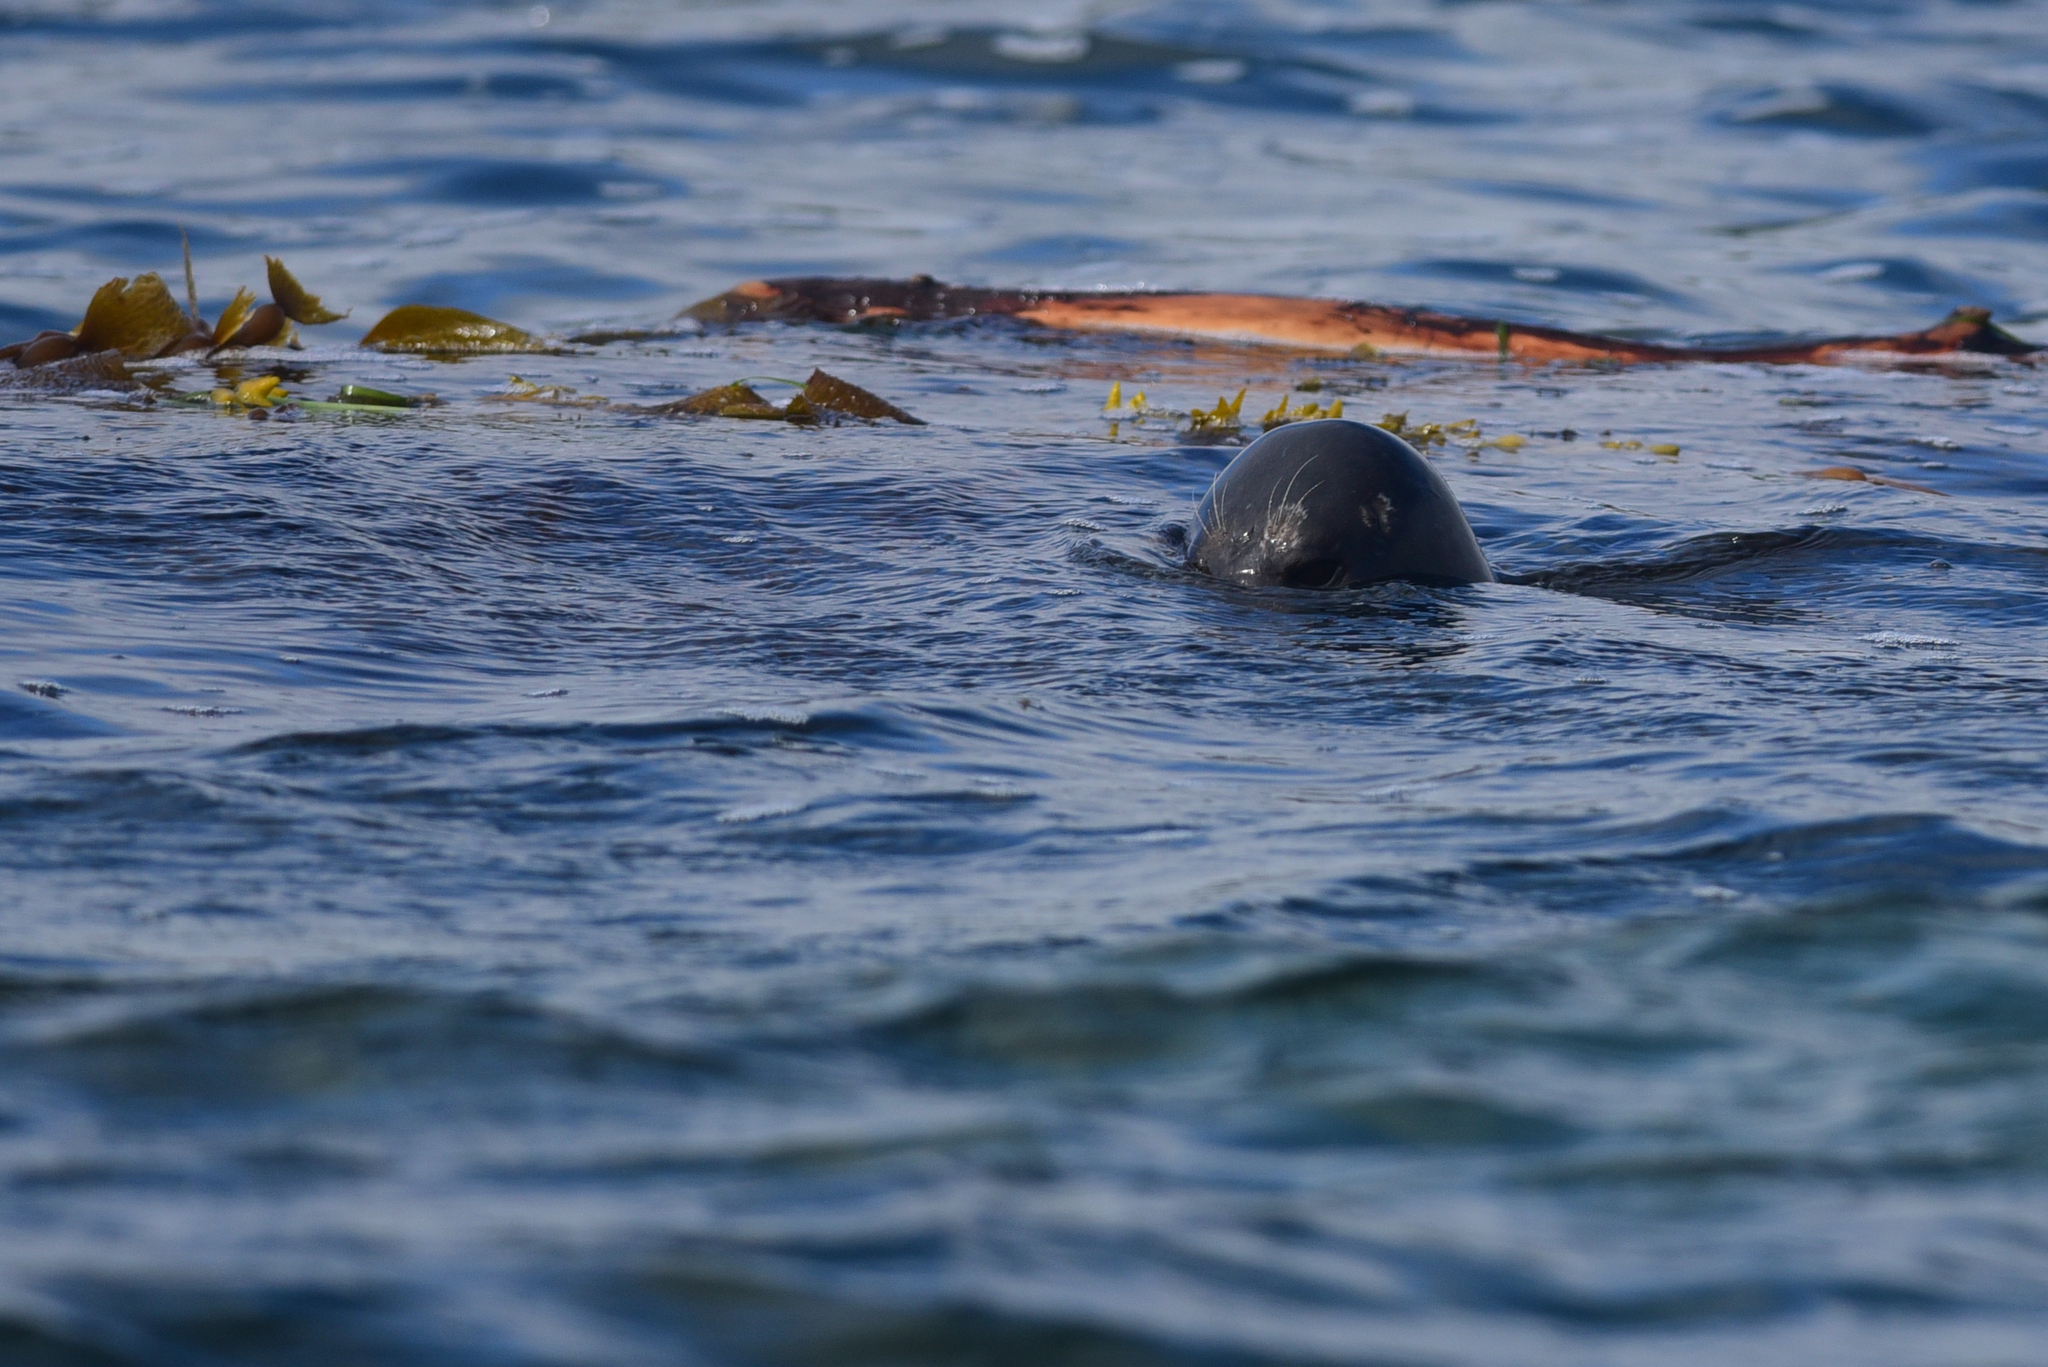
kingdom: Animalia
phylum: Chordata
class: Mammalia
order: Carnivora
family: Phocidae
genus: Phoca
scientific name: Phoca vitulina
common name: Harbor seal
